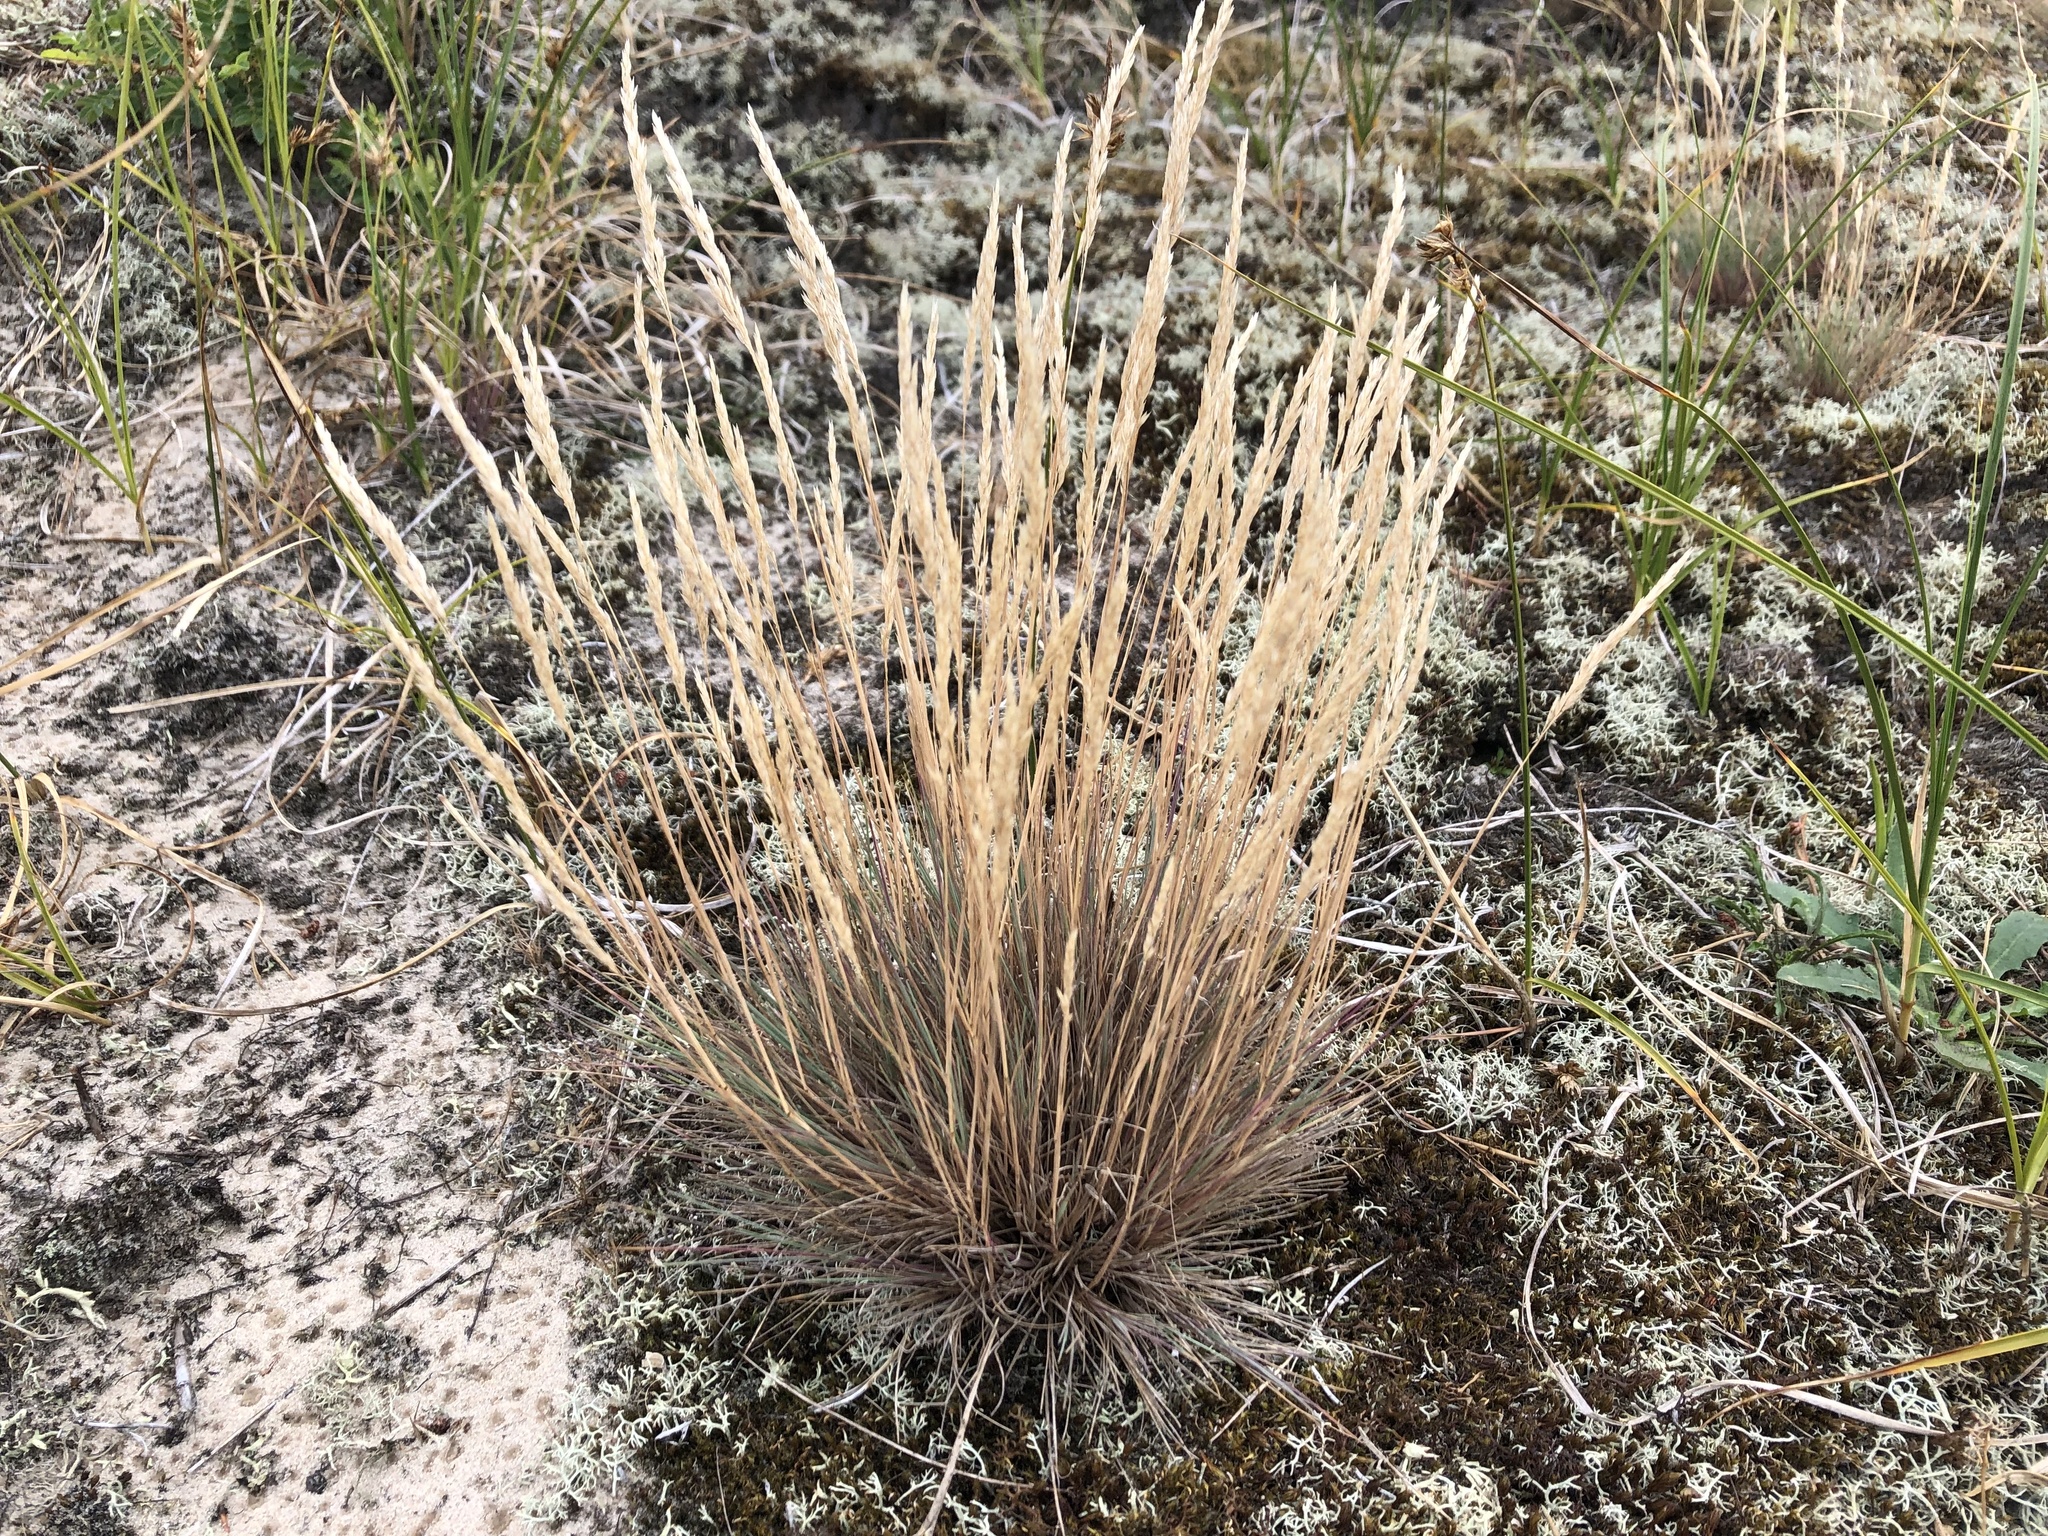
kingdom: Plantae
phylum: Tracheophyta
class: Liliopsida
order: Poales
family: Poaceae
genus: Corynephorus
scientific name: Corynephorus canescens
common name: Grey hair-grass
